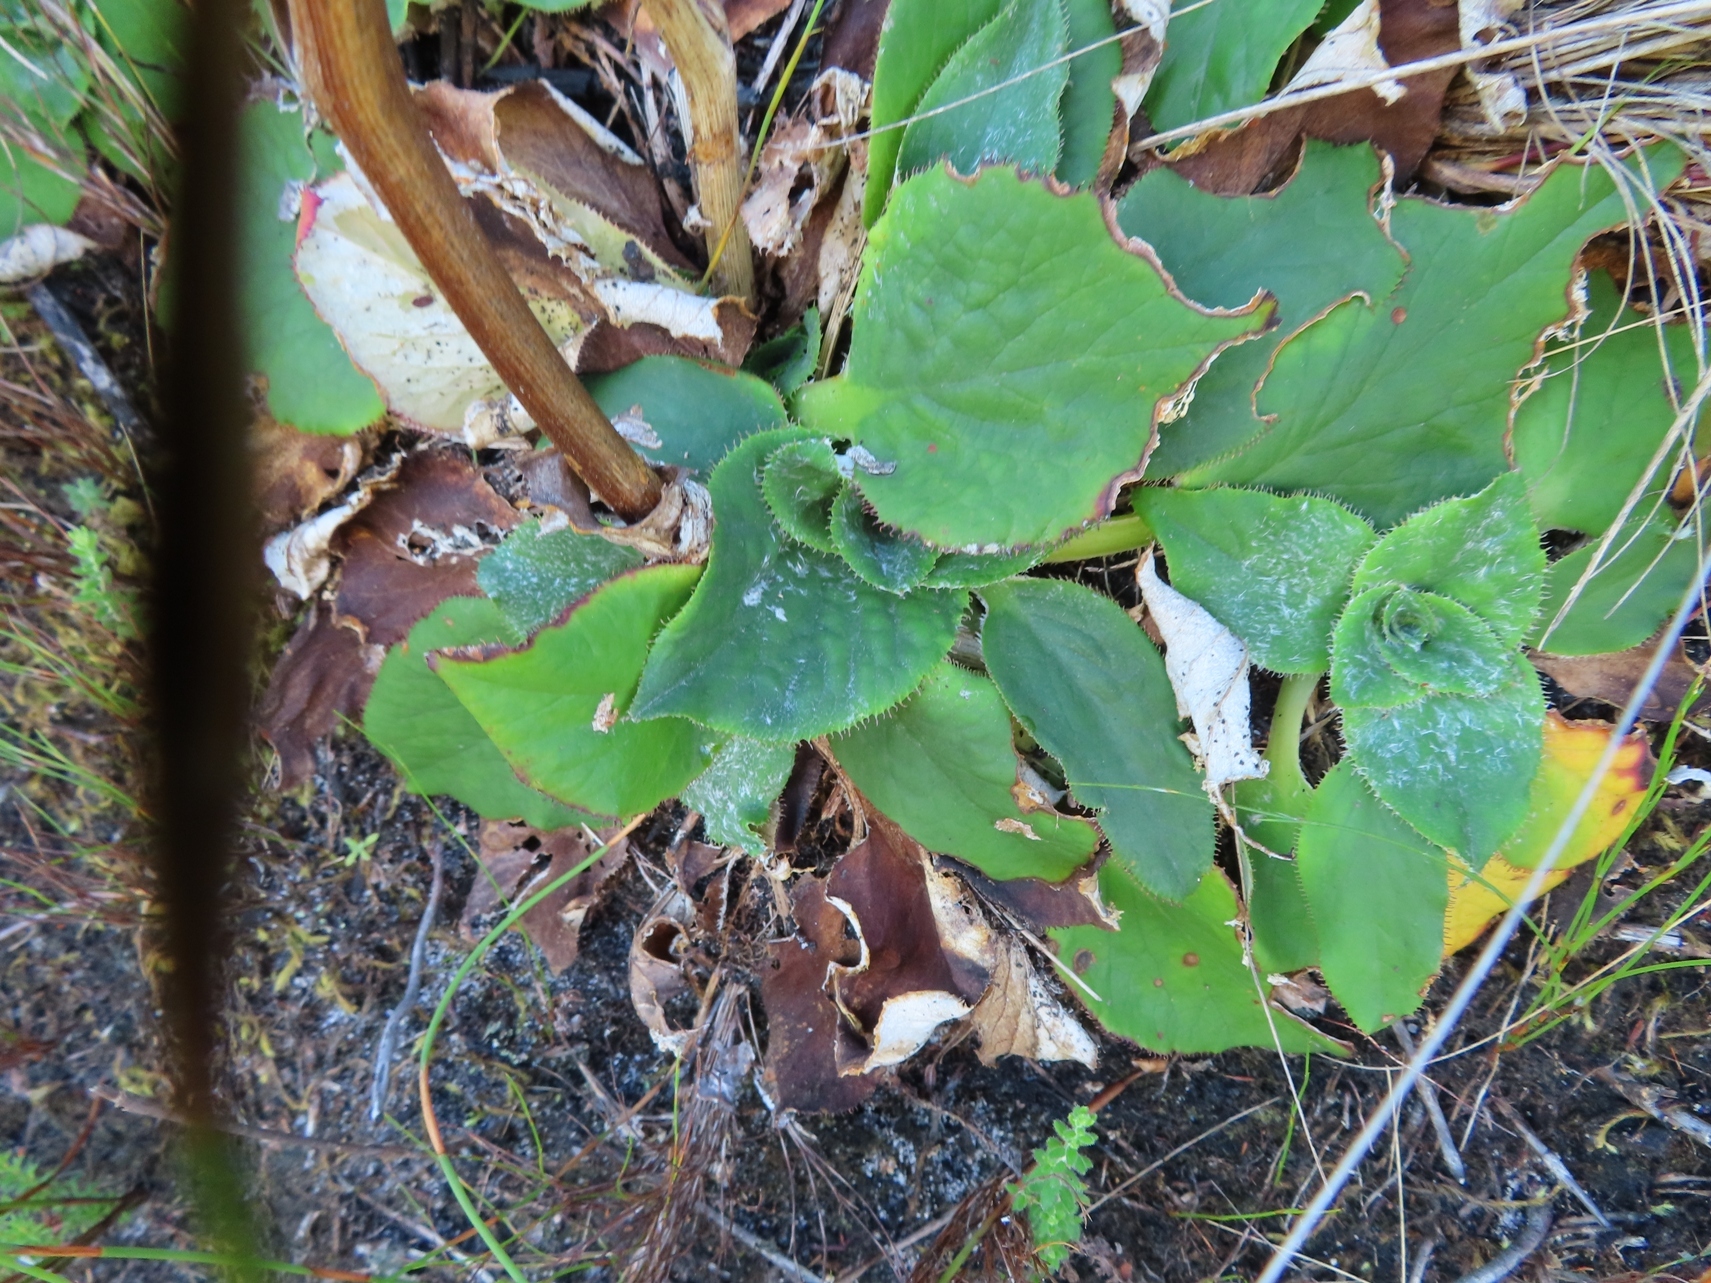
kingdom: Plantae
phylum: Tracheophyta
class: Magnoliopsida
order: Apiales
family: Apiaceae
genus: Hermas
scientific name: Hermas ciliata
